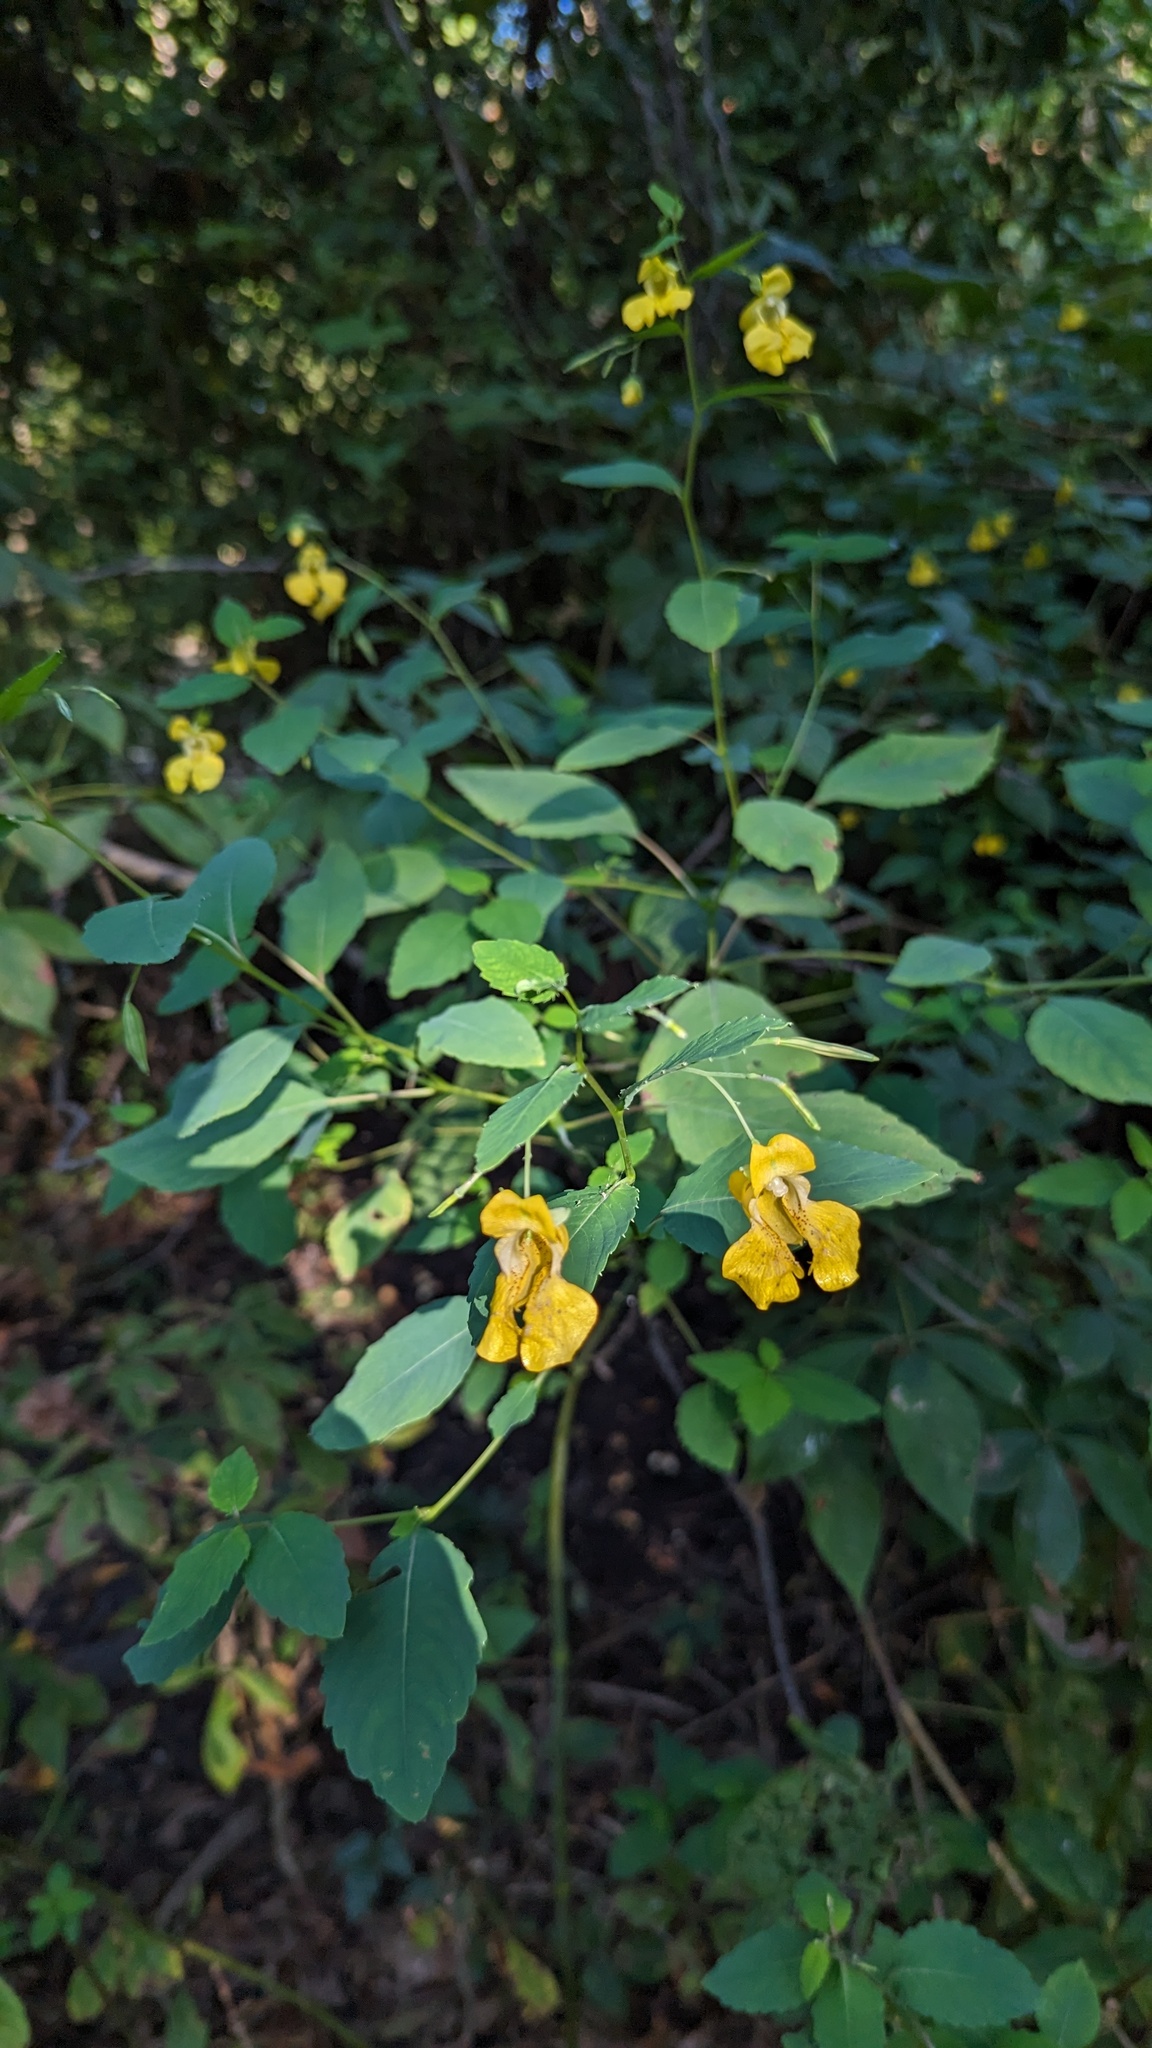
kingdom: Plantae
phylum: Tracheophyta
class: Magnoliopsida
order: Ericales
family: Balsaminaceae
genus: Impatiens
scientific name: Impatiens pallida
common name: Pale snapweed
